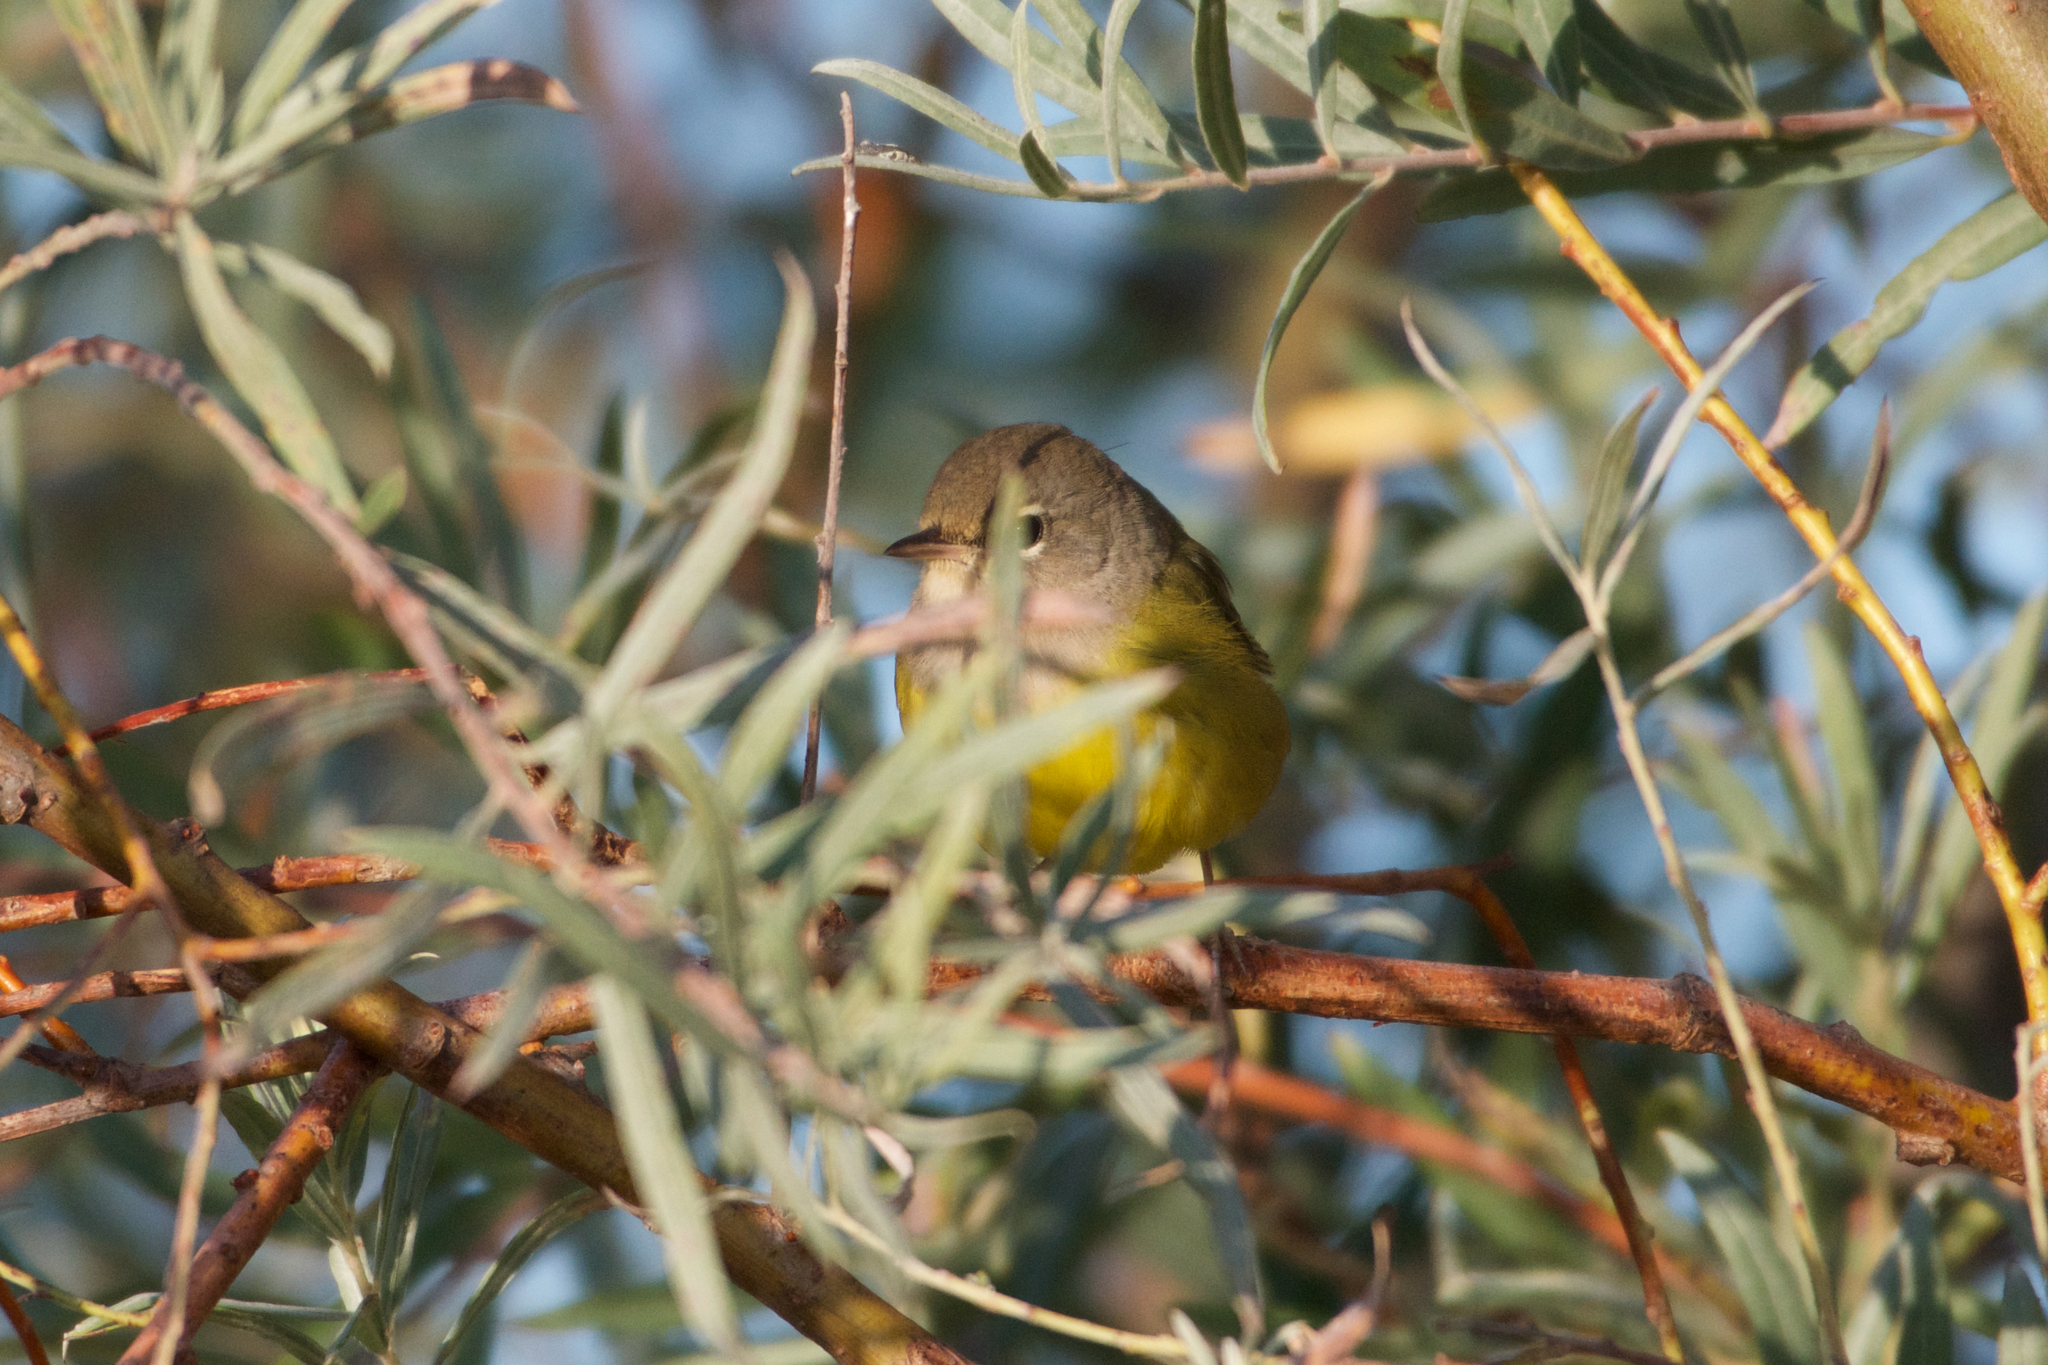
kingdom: Animalia
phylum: Chordata
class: Aves
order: Passeriformes
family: Parulidae
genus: Geothlypis
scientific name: Geothlypis tolmiei
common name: Macgillivray's warbler
